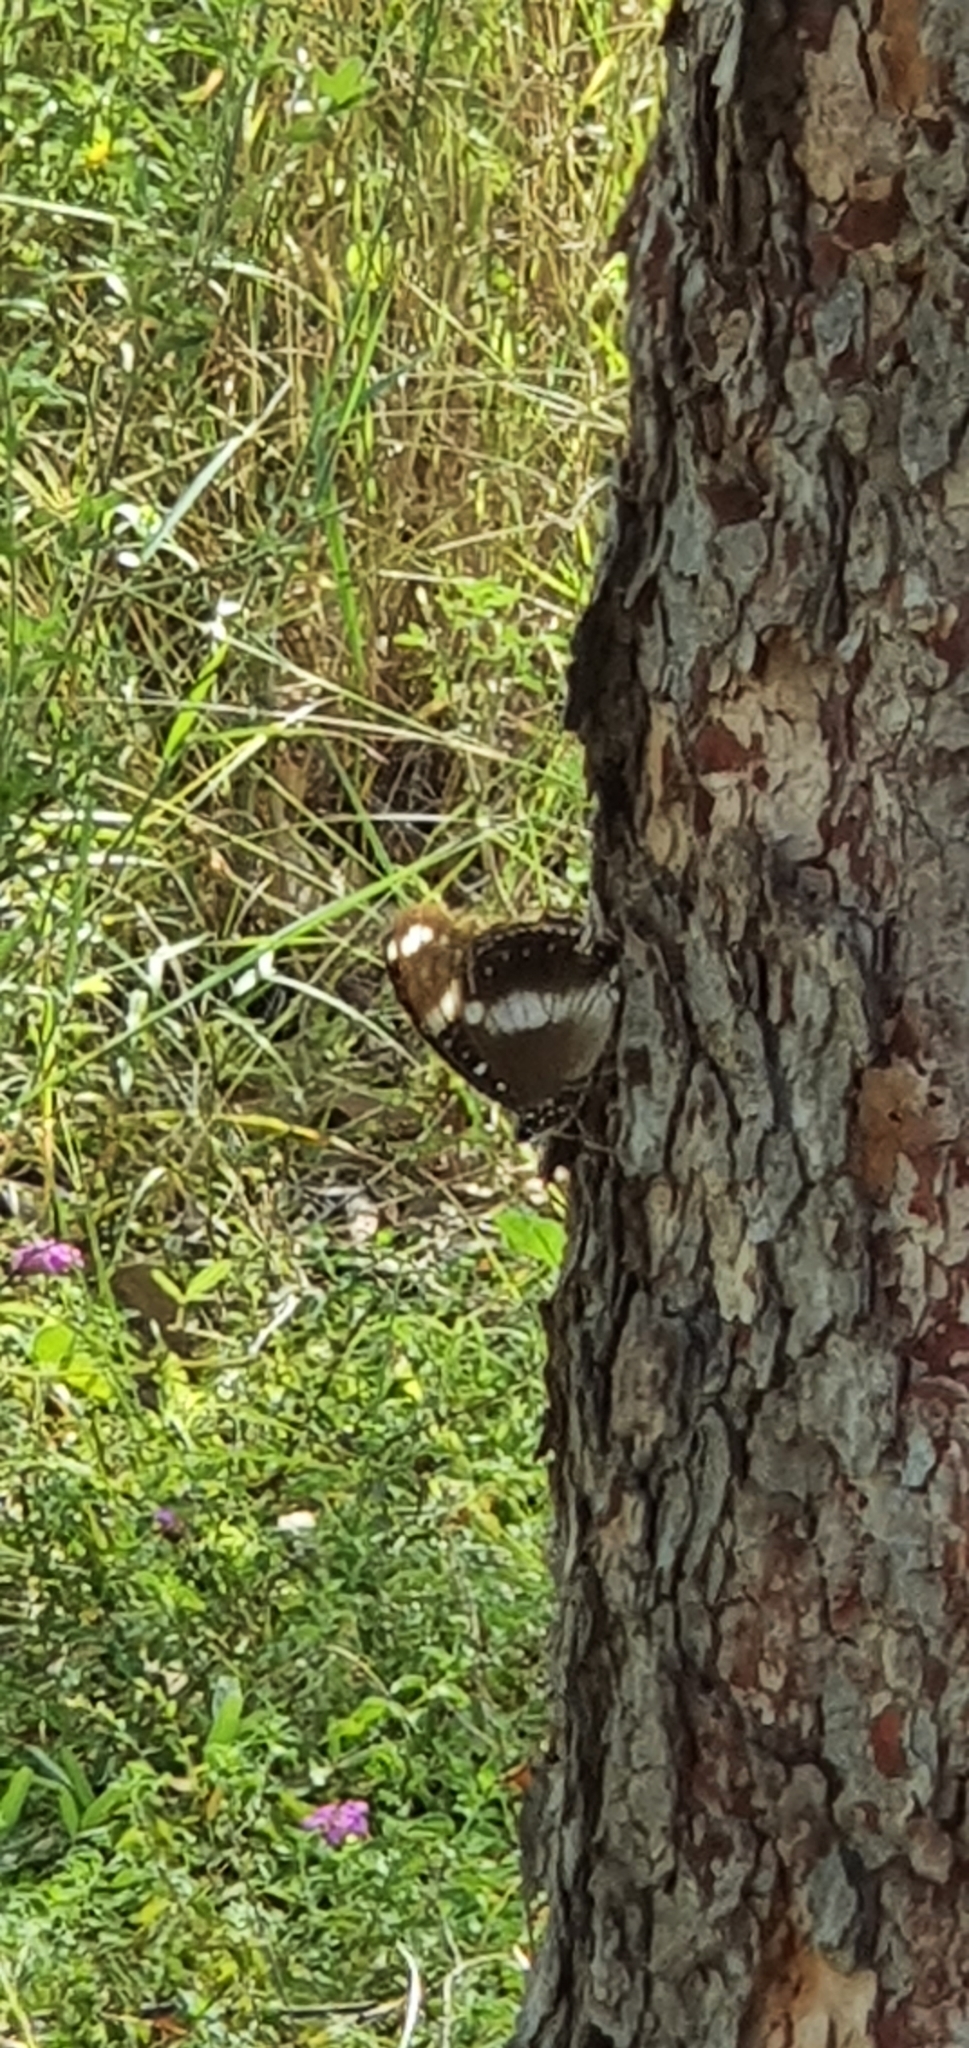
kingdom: Animalia
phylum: Arthropoda
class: Insecta
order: Lepidoptera
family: Nymphalidae
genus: Hypolimnas
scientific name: Hypolimnas bolina
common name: Great eggfly
